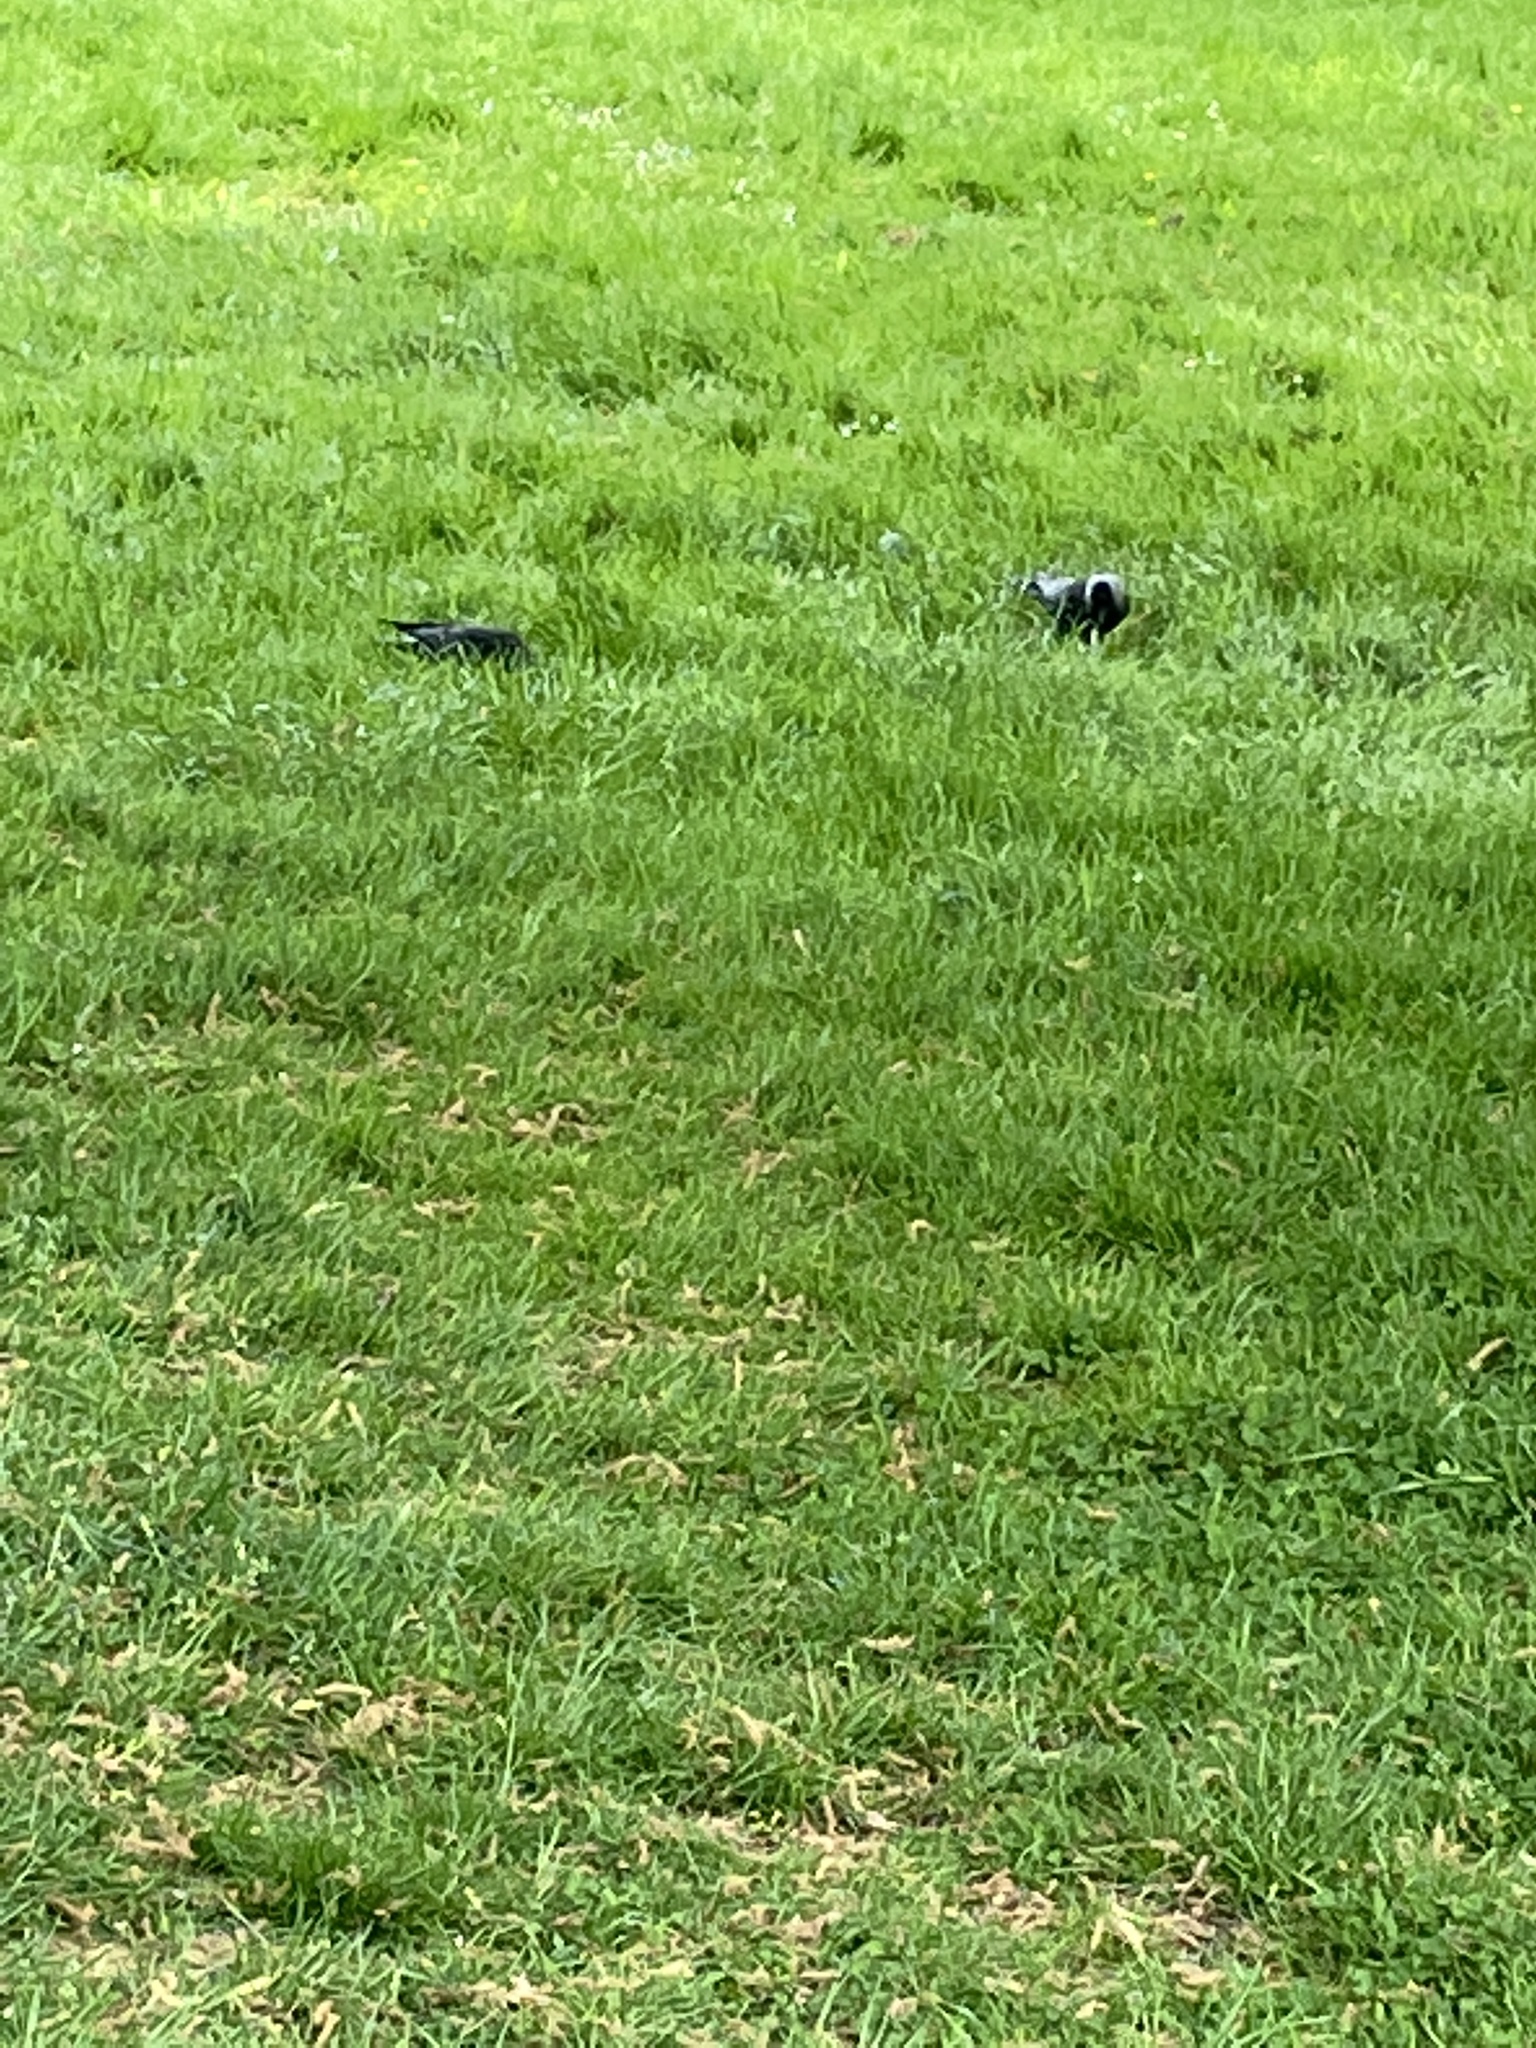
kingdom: Animalia
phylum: Chordata
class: Aves
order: Passeriformes
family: Corvidae
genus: Coloeus
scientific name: Coloeus monedula
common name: Western jackdaw
